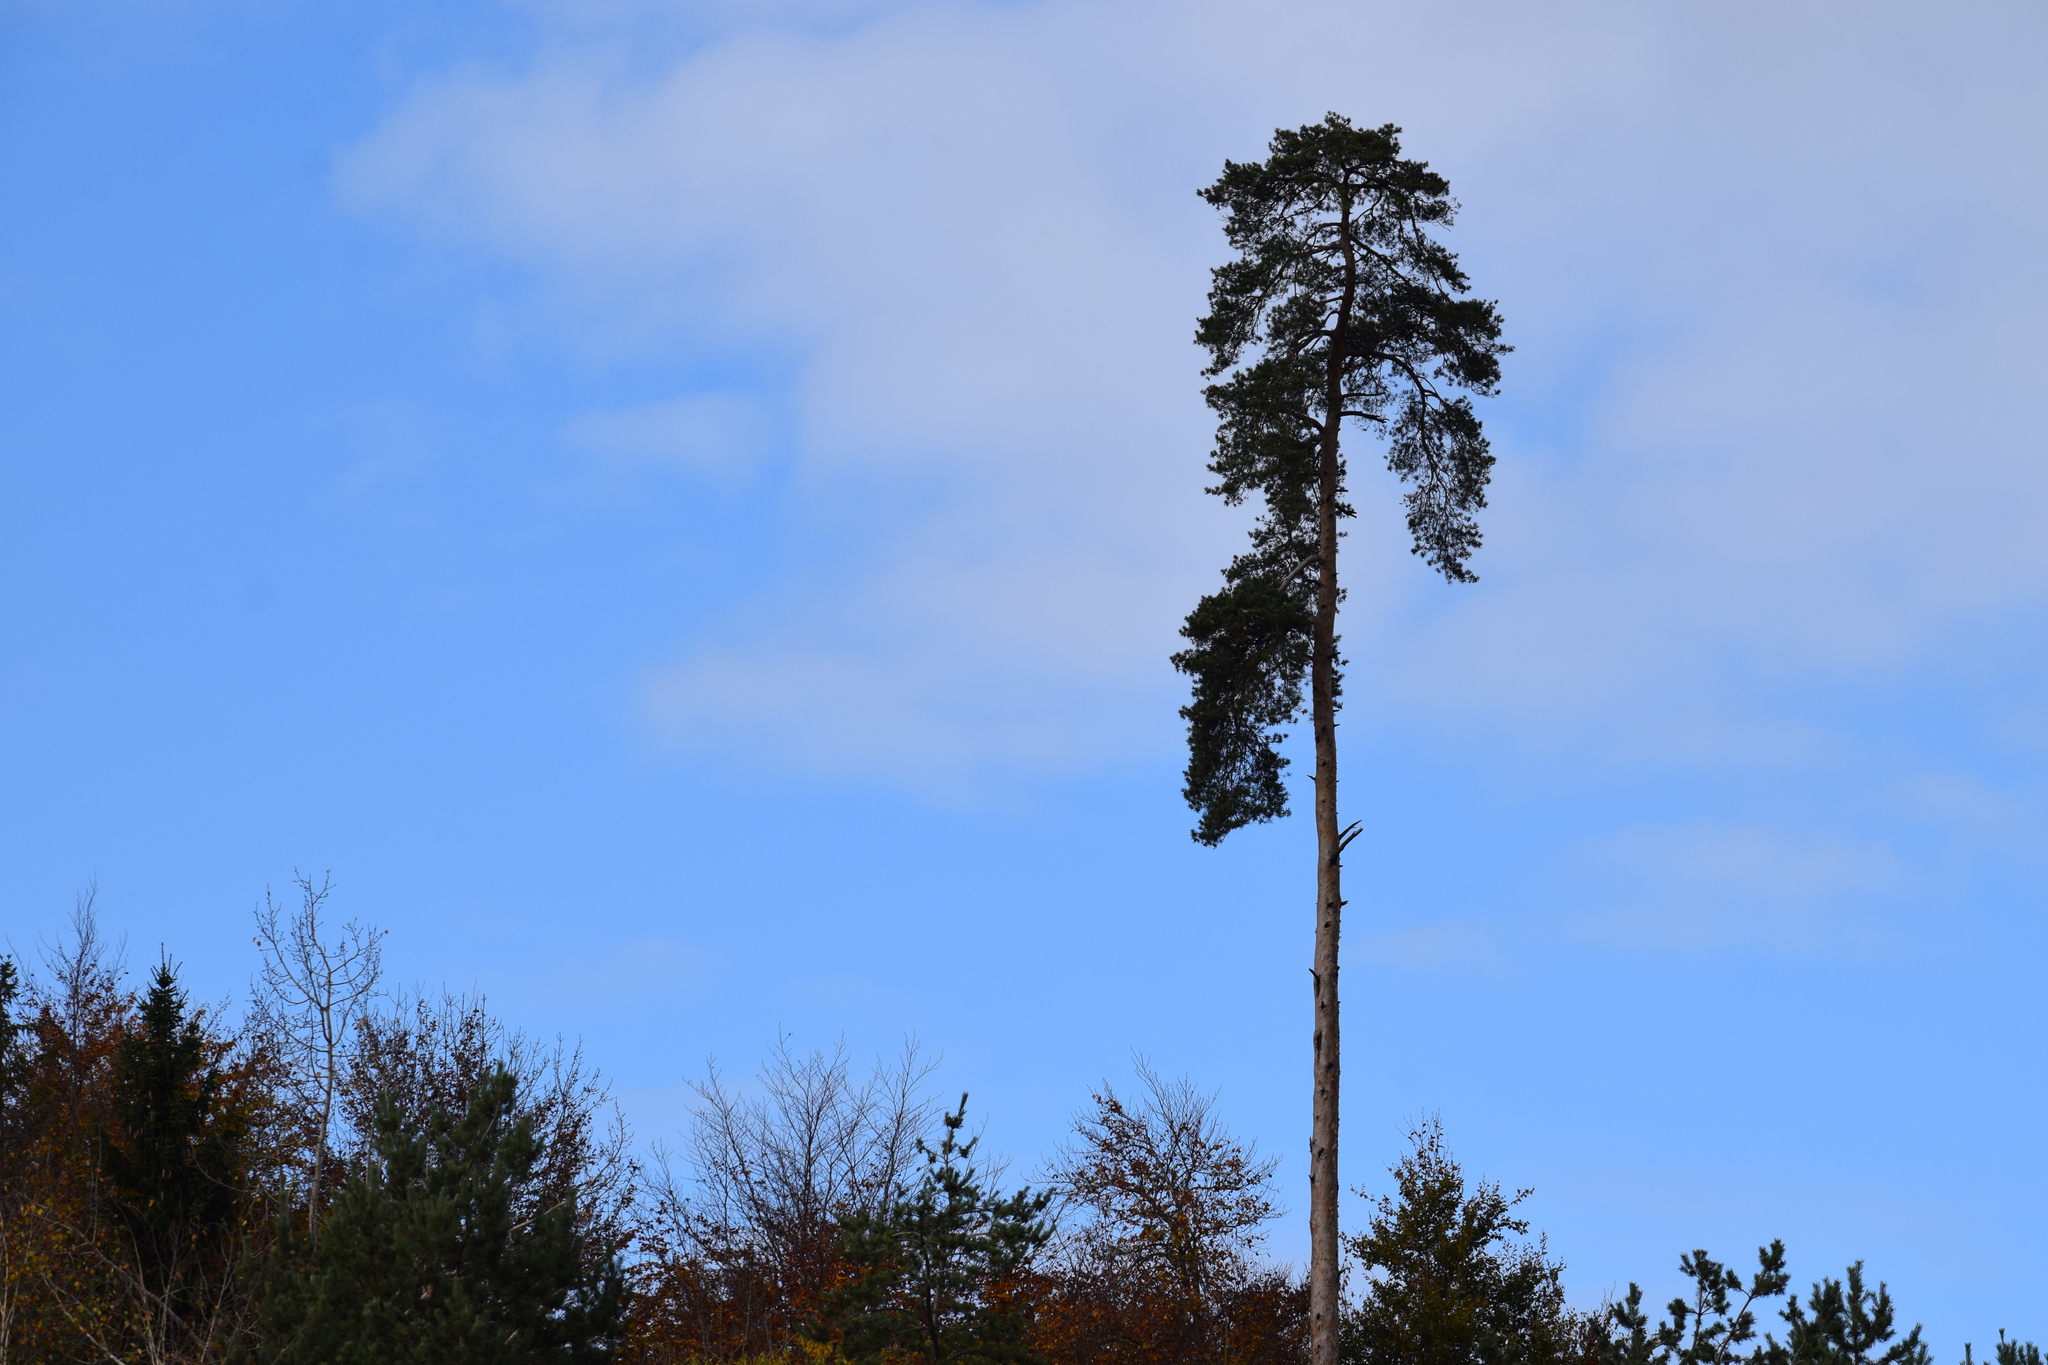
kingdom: Plantae
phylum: Tracheophyta
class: Pinopsida
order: Pinales
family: Pinaceae
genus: Pinus
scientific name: Pinus sylvestris
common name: Scots pine
